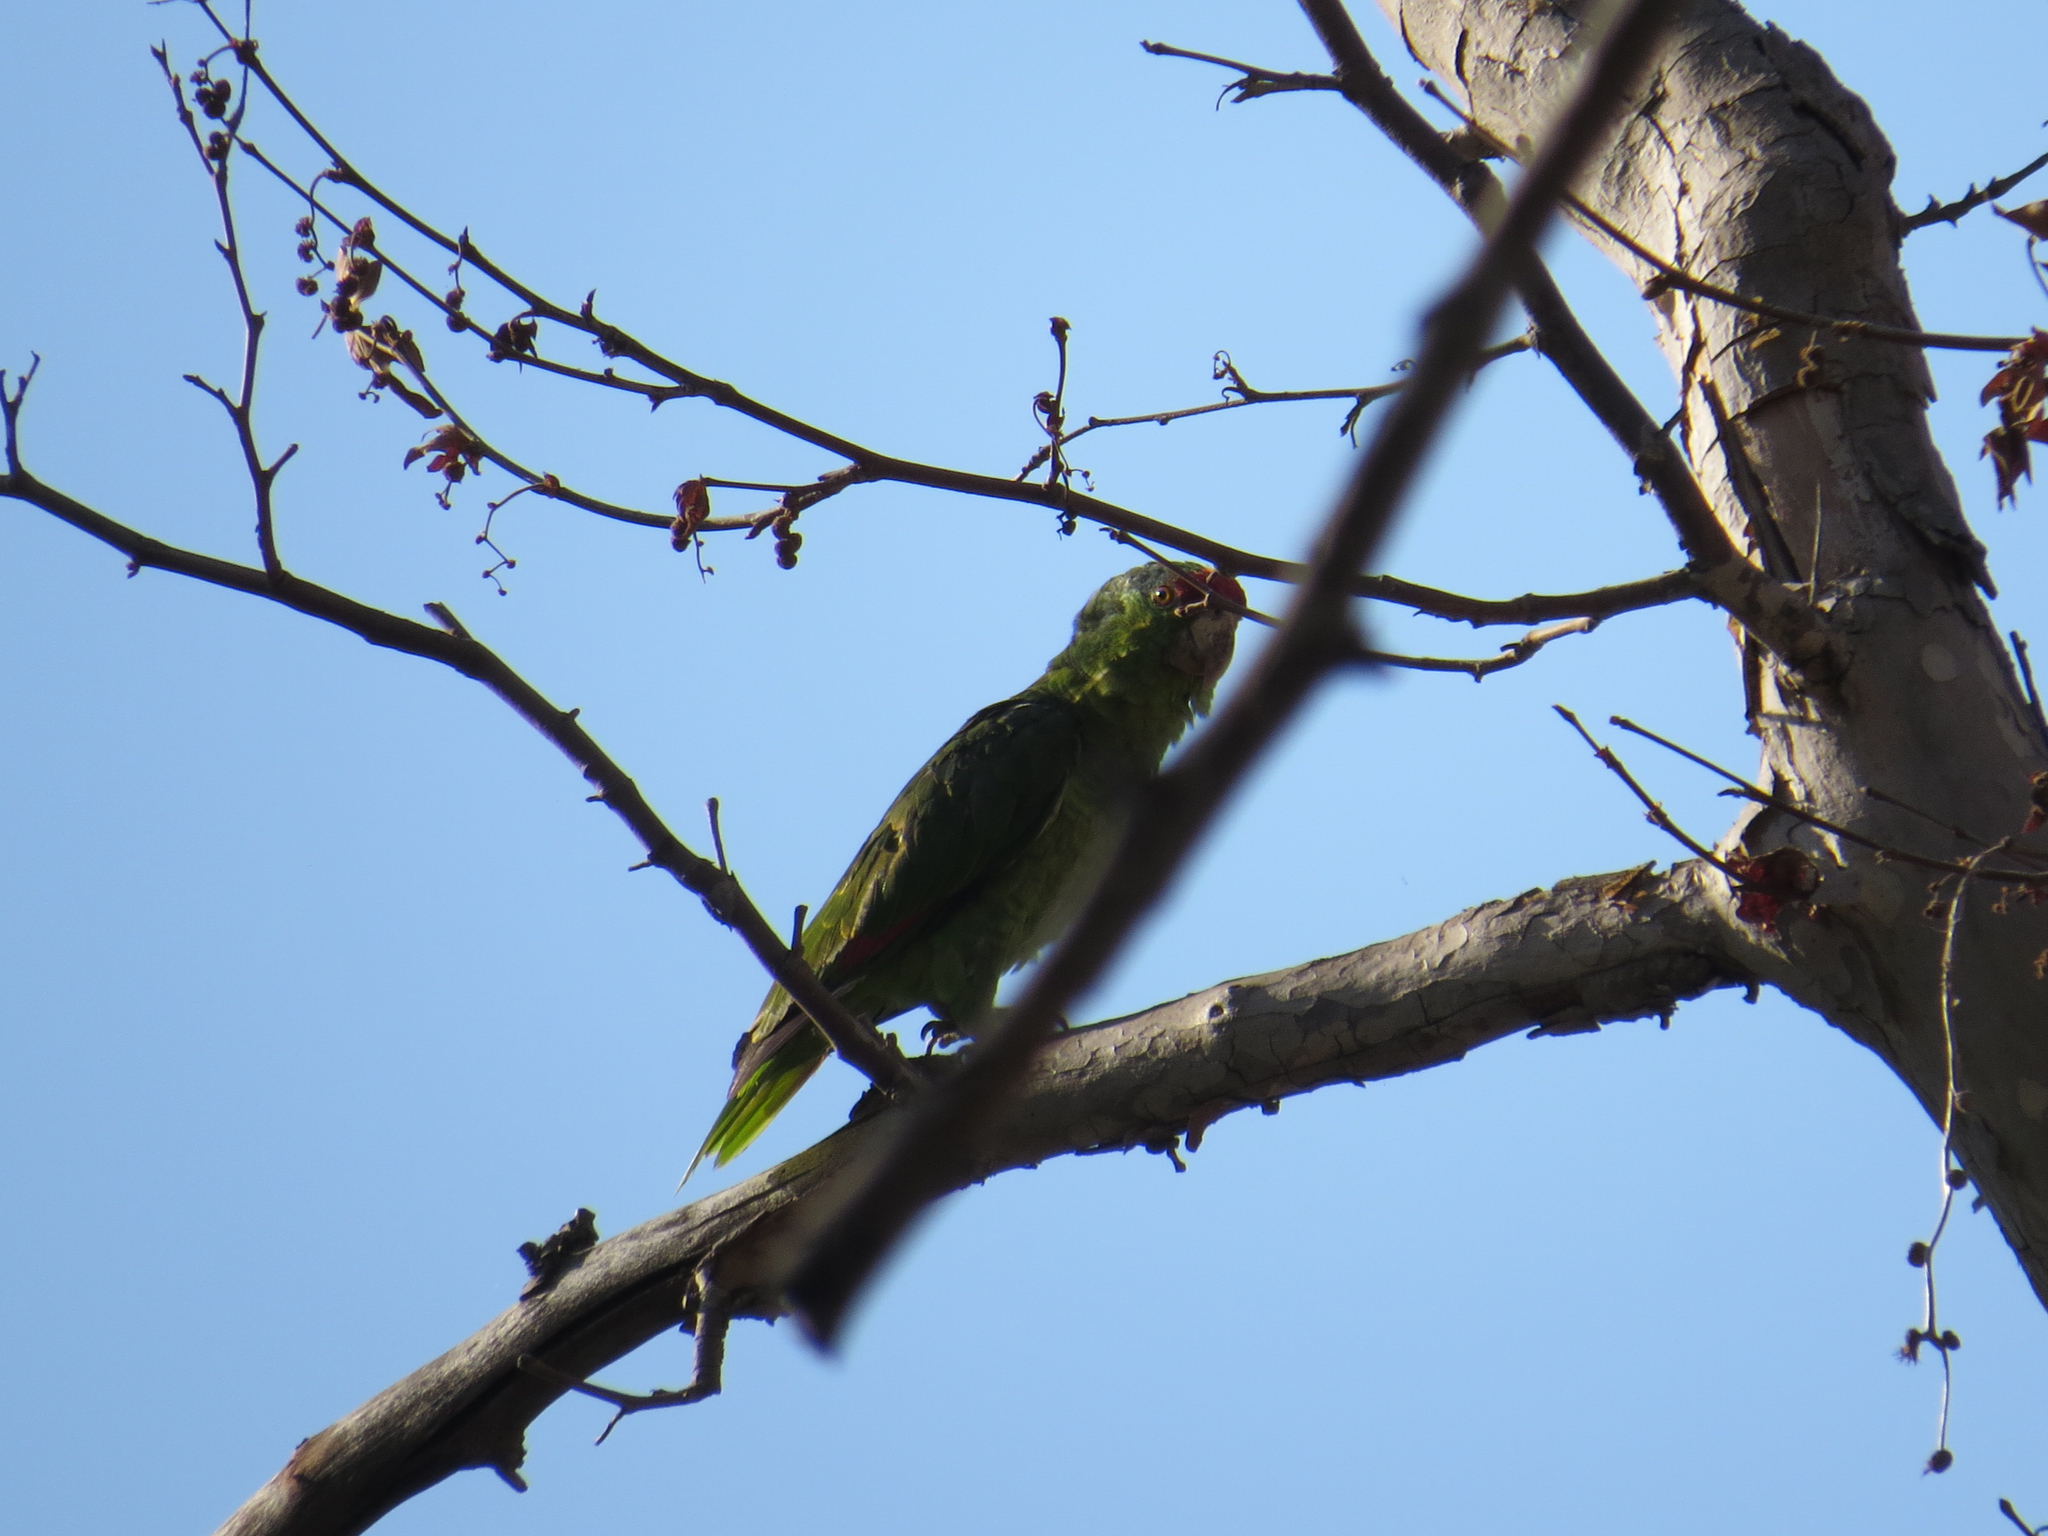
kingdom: Animalia
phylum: Chordata
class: Aves
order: Psittaciformes
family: Psittacidae
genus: Amazona
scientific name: Amazona viridigenalis
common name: Red-crowned amazon
